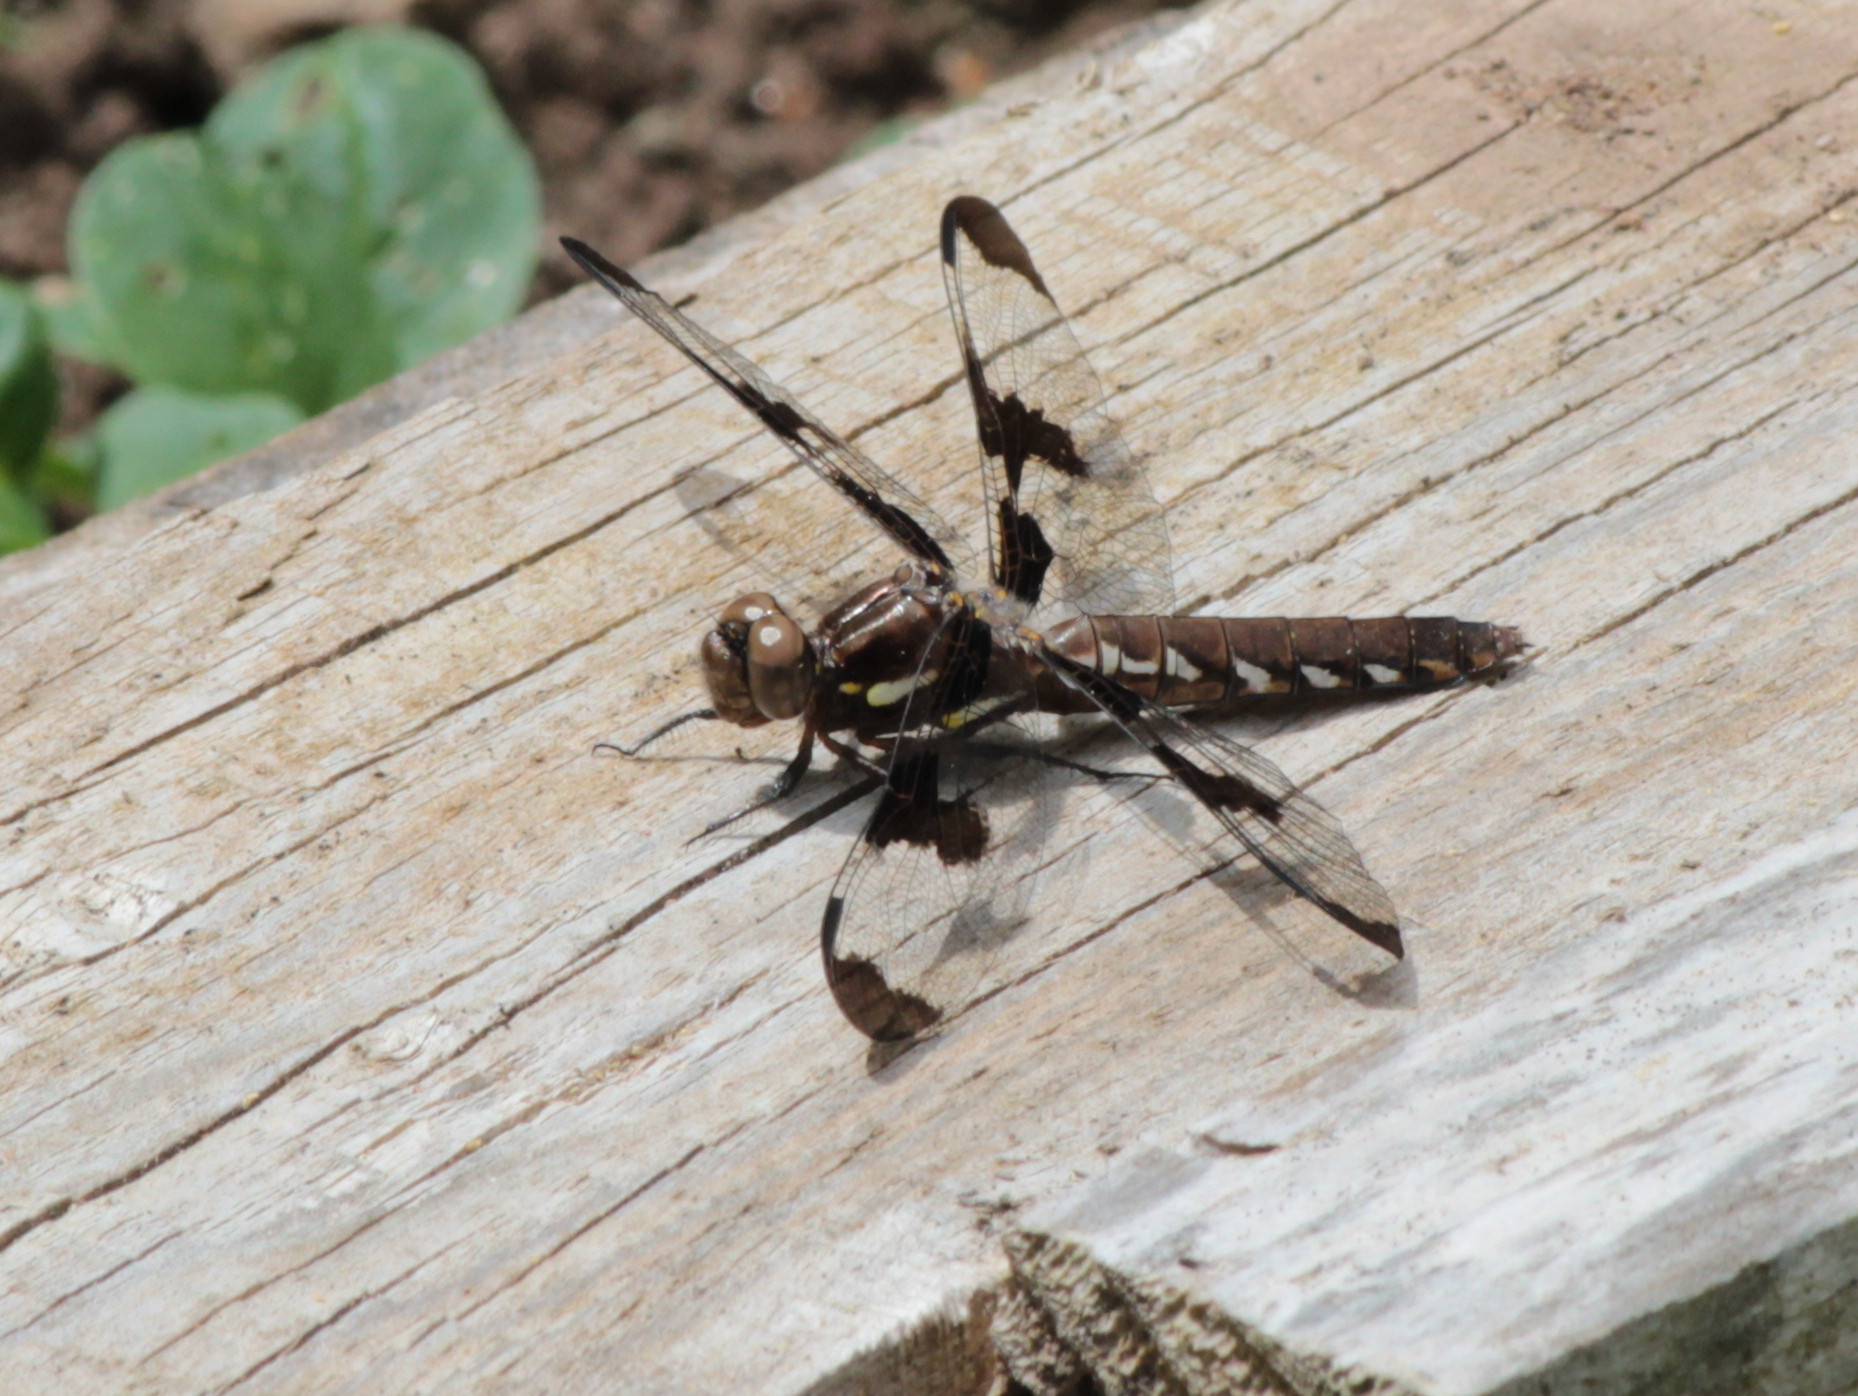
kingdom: Animalia
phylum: Arthropoda
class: Insecta
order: Odonata
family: Libellulidae
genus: Plathemis
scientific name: Plathemis lydia
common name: Common whitetail
